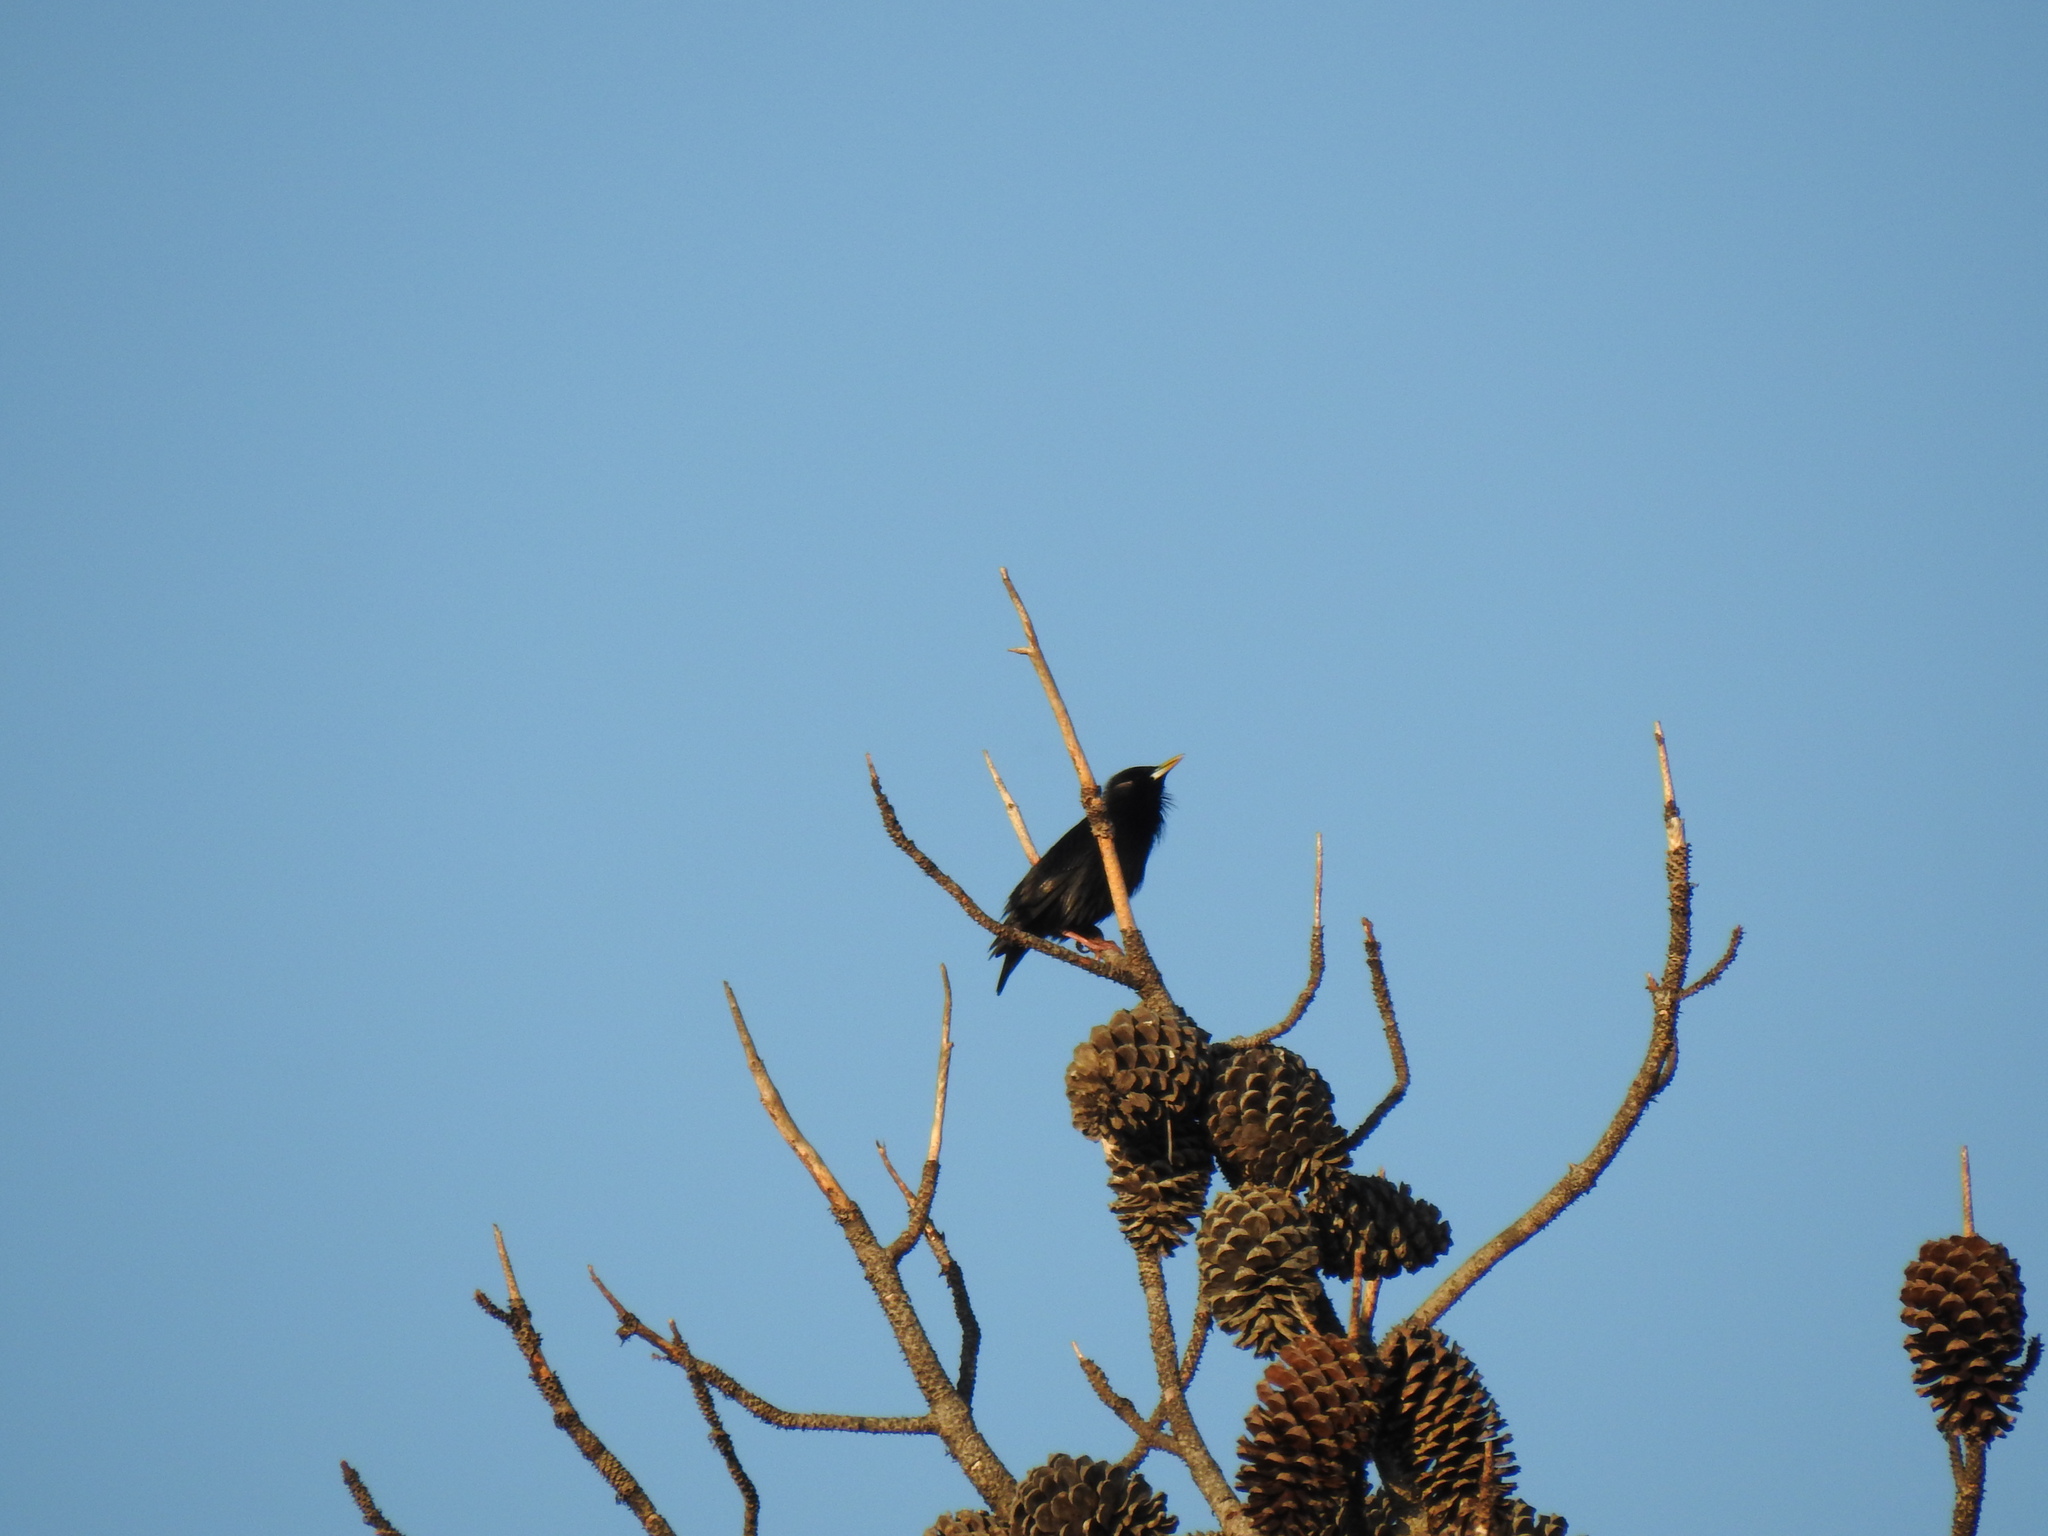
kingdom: Animalia
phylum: Chordata
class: Aves
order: Passeriformes
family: Sturnidae
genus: Sturnus
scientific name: Sturnus unicolor
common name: Spotless starling
